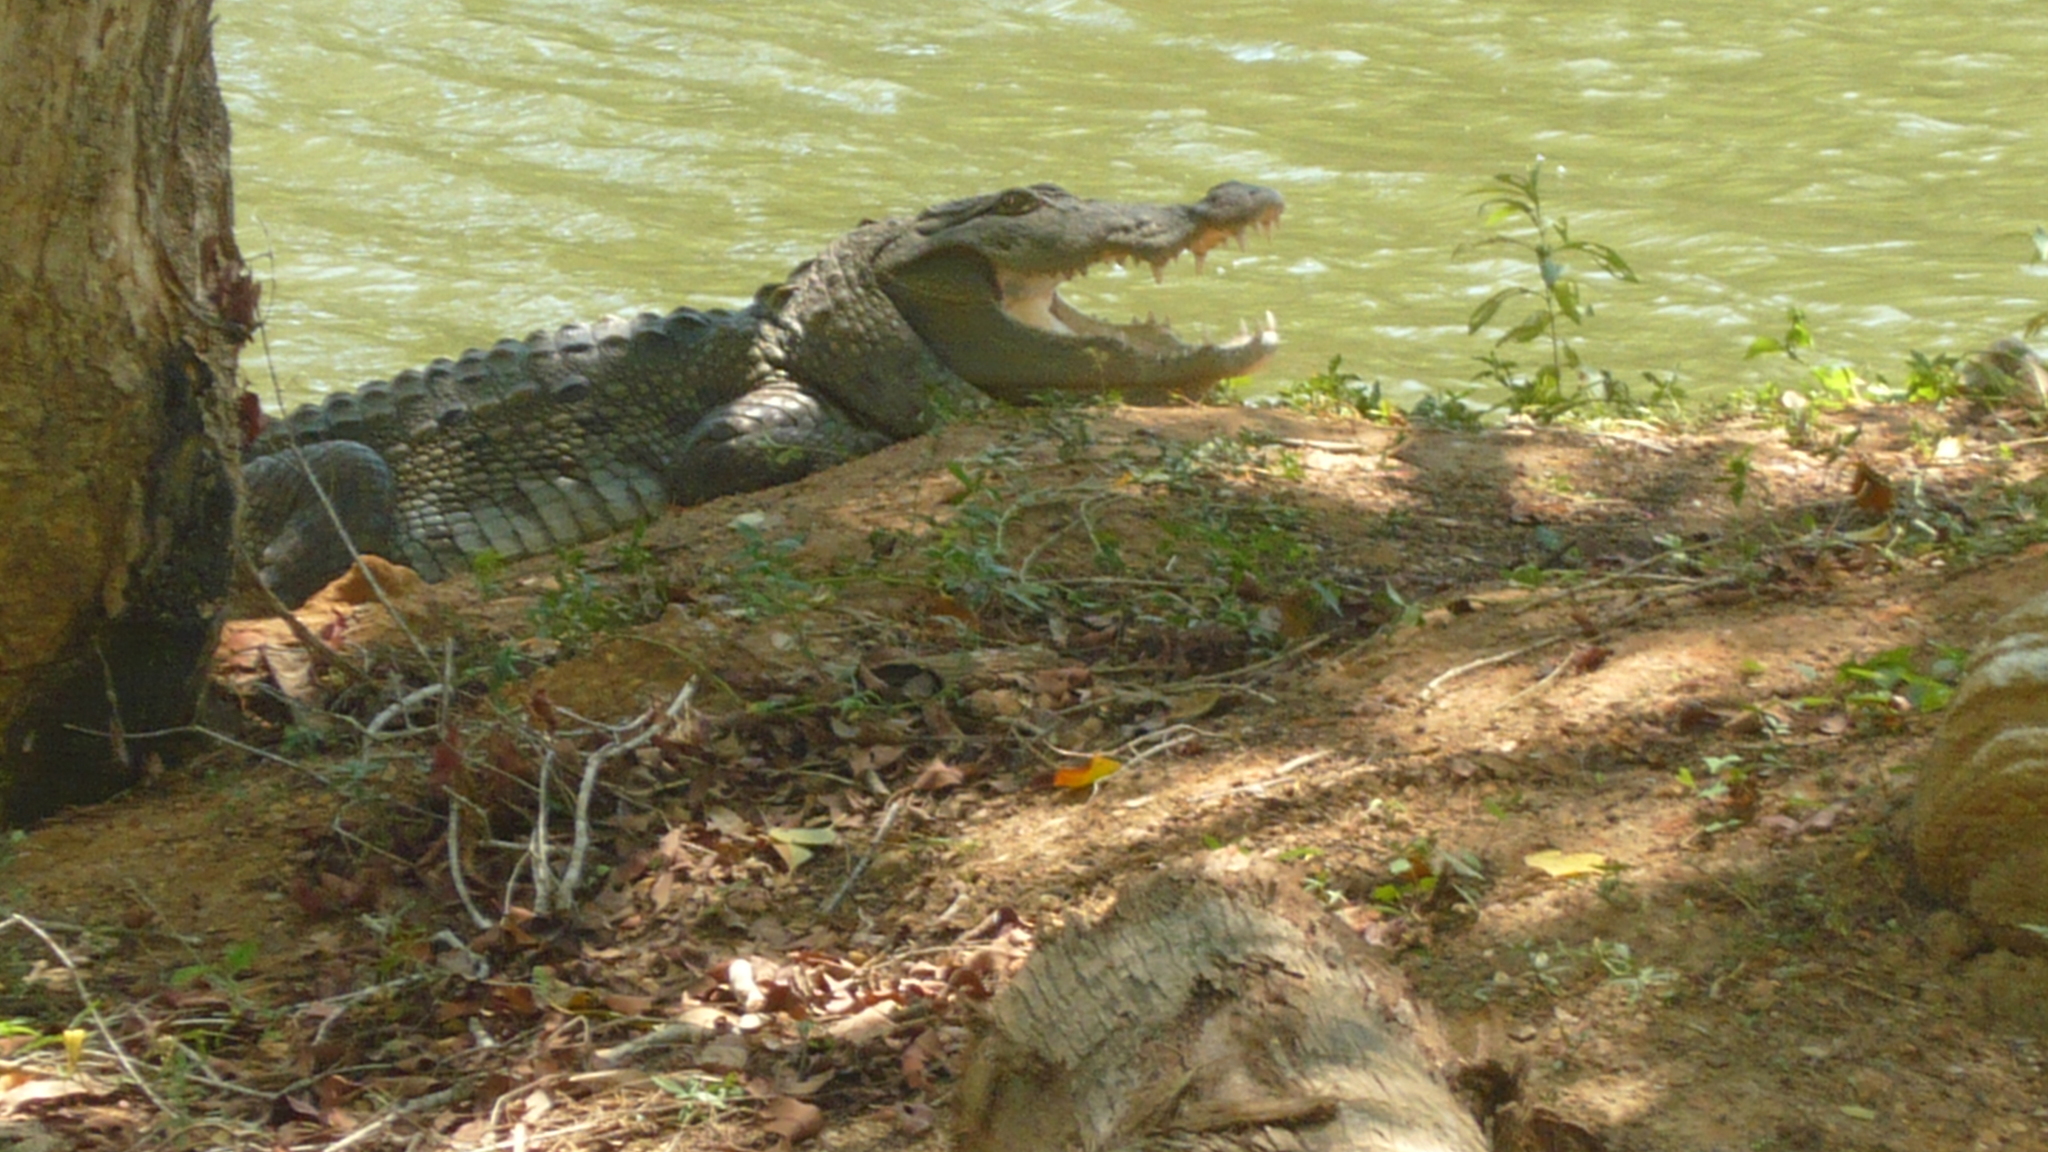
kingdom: Animalia
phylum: Chordata
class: Crocodylia
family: Crocodylidae
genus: Crocodylus
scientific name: Crocodylus palustris
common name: Mugger crocodile
